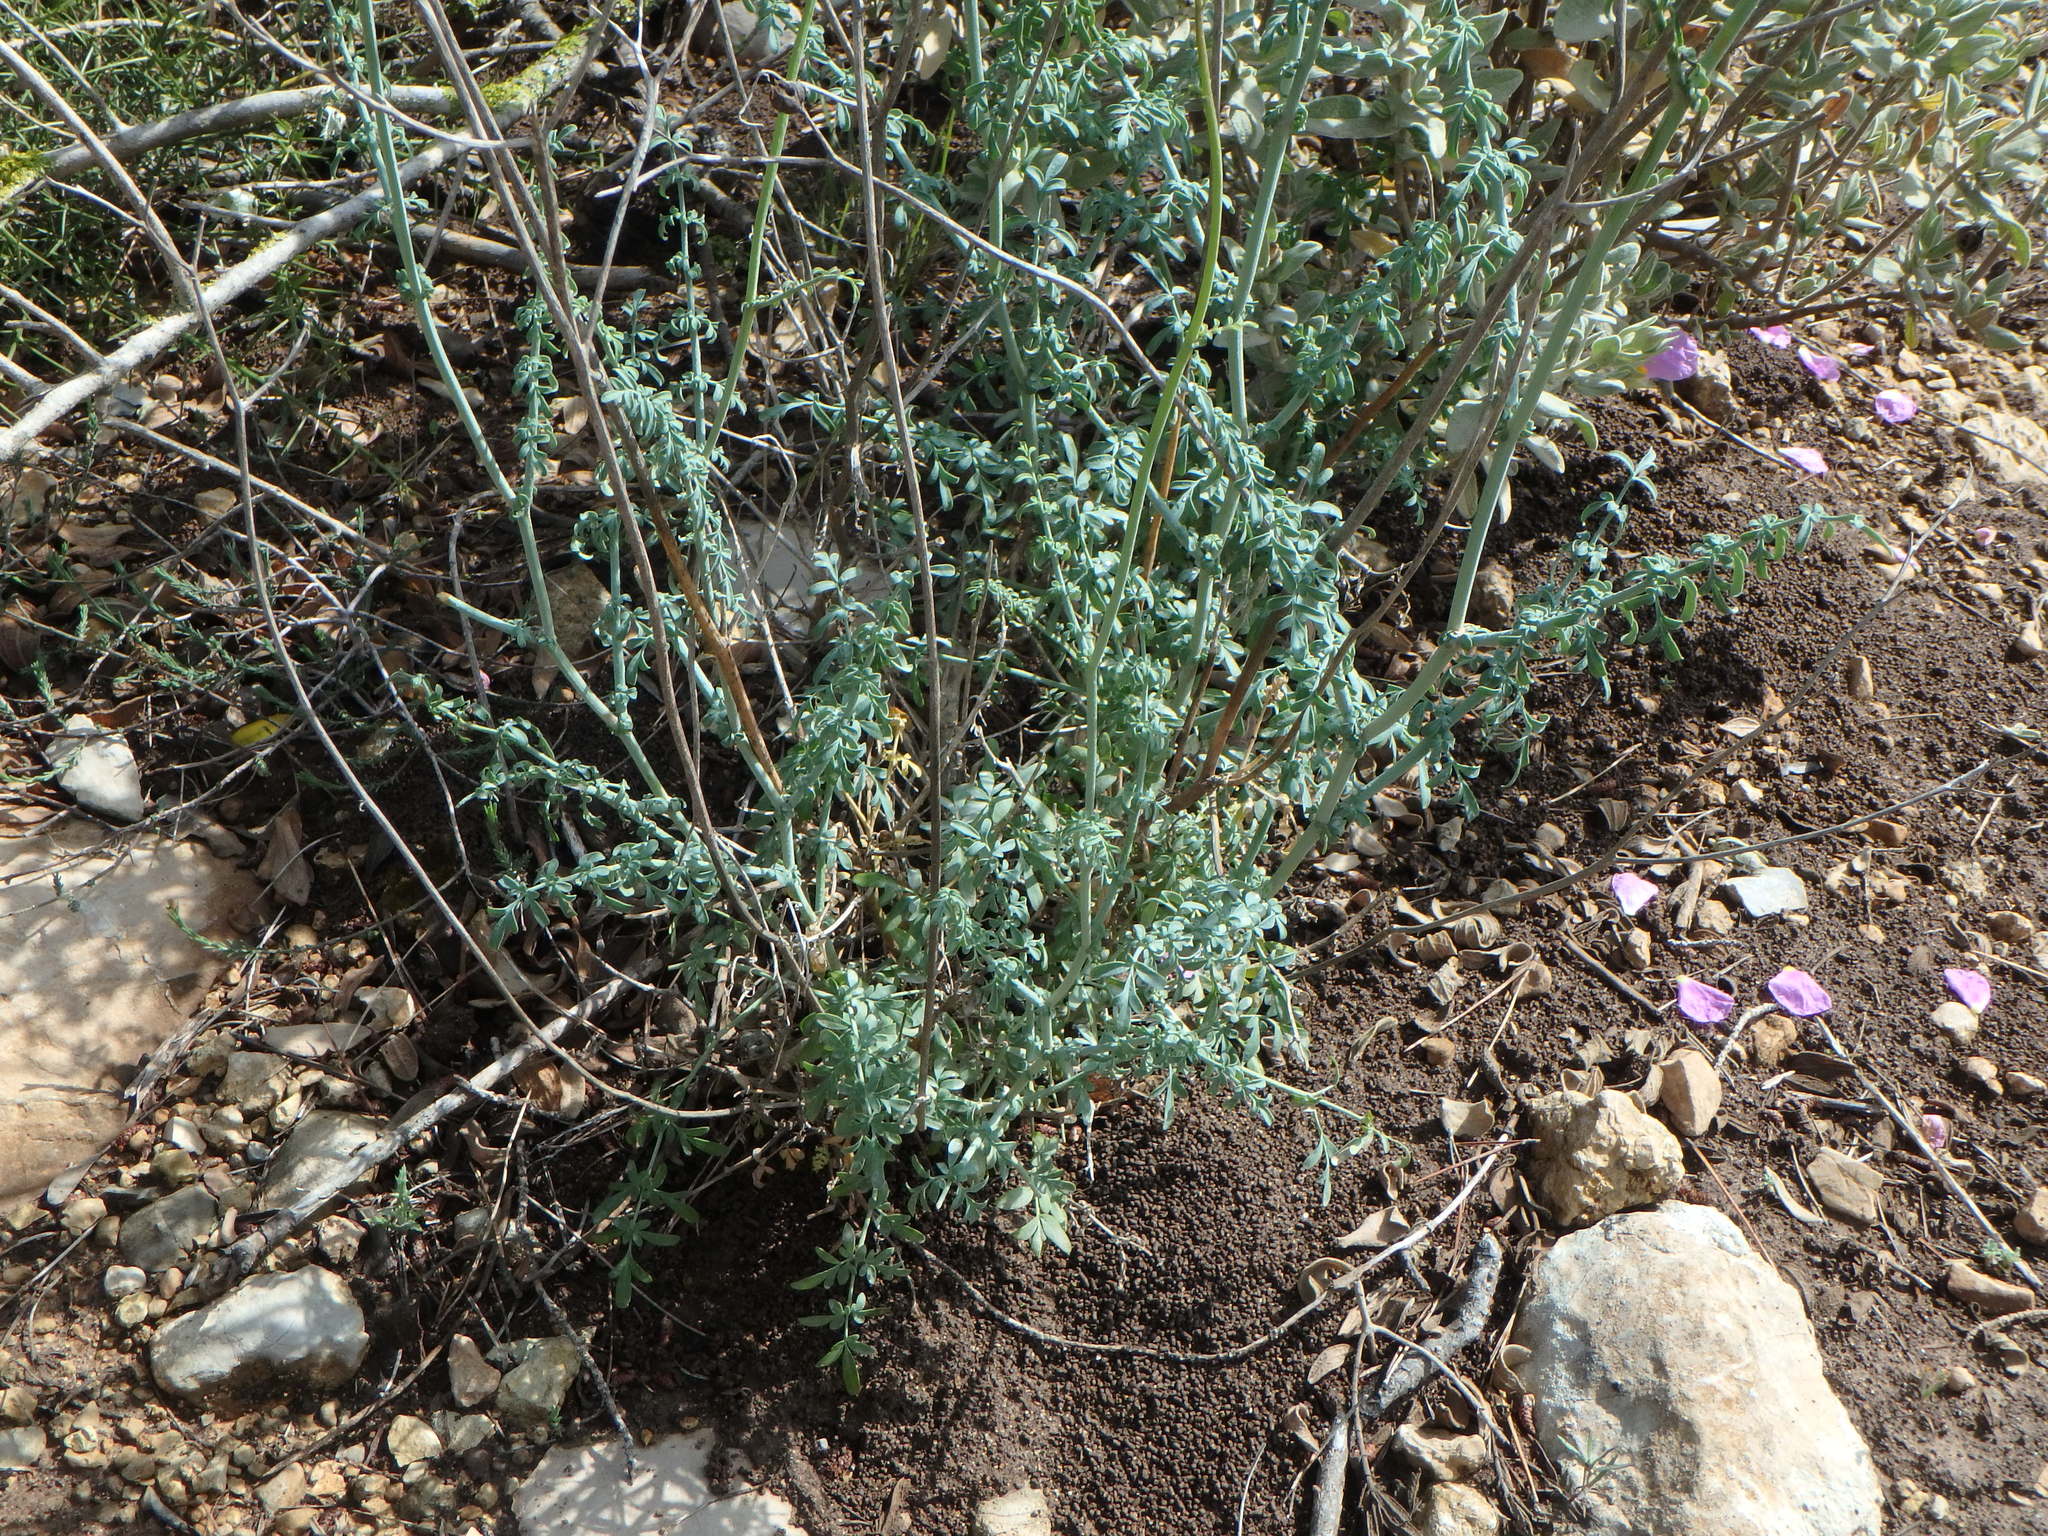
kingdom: Plantae
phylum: Tracheophyta
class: Magnoliopsida
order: Sapindales
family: Rutaceae
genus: Ruta
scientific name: Ruta angustifolia
